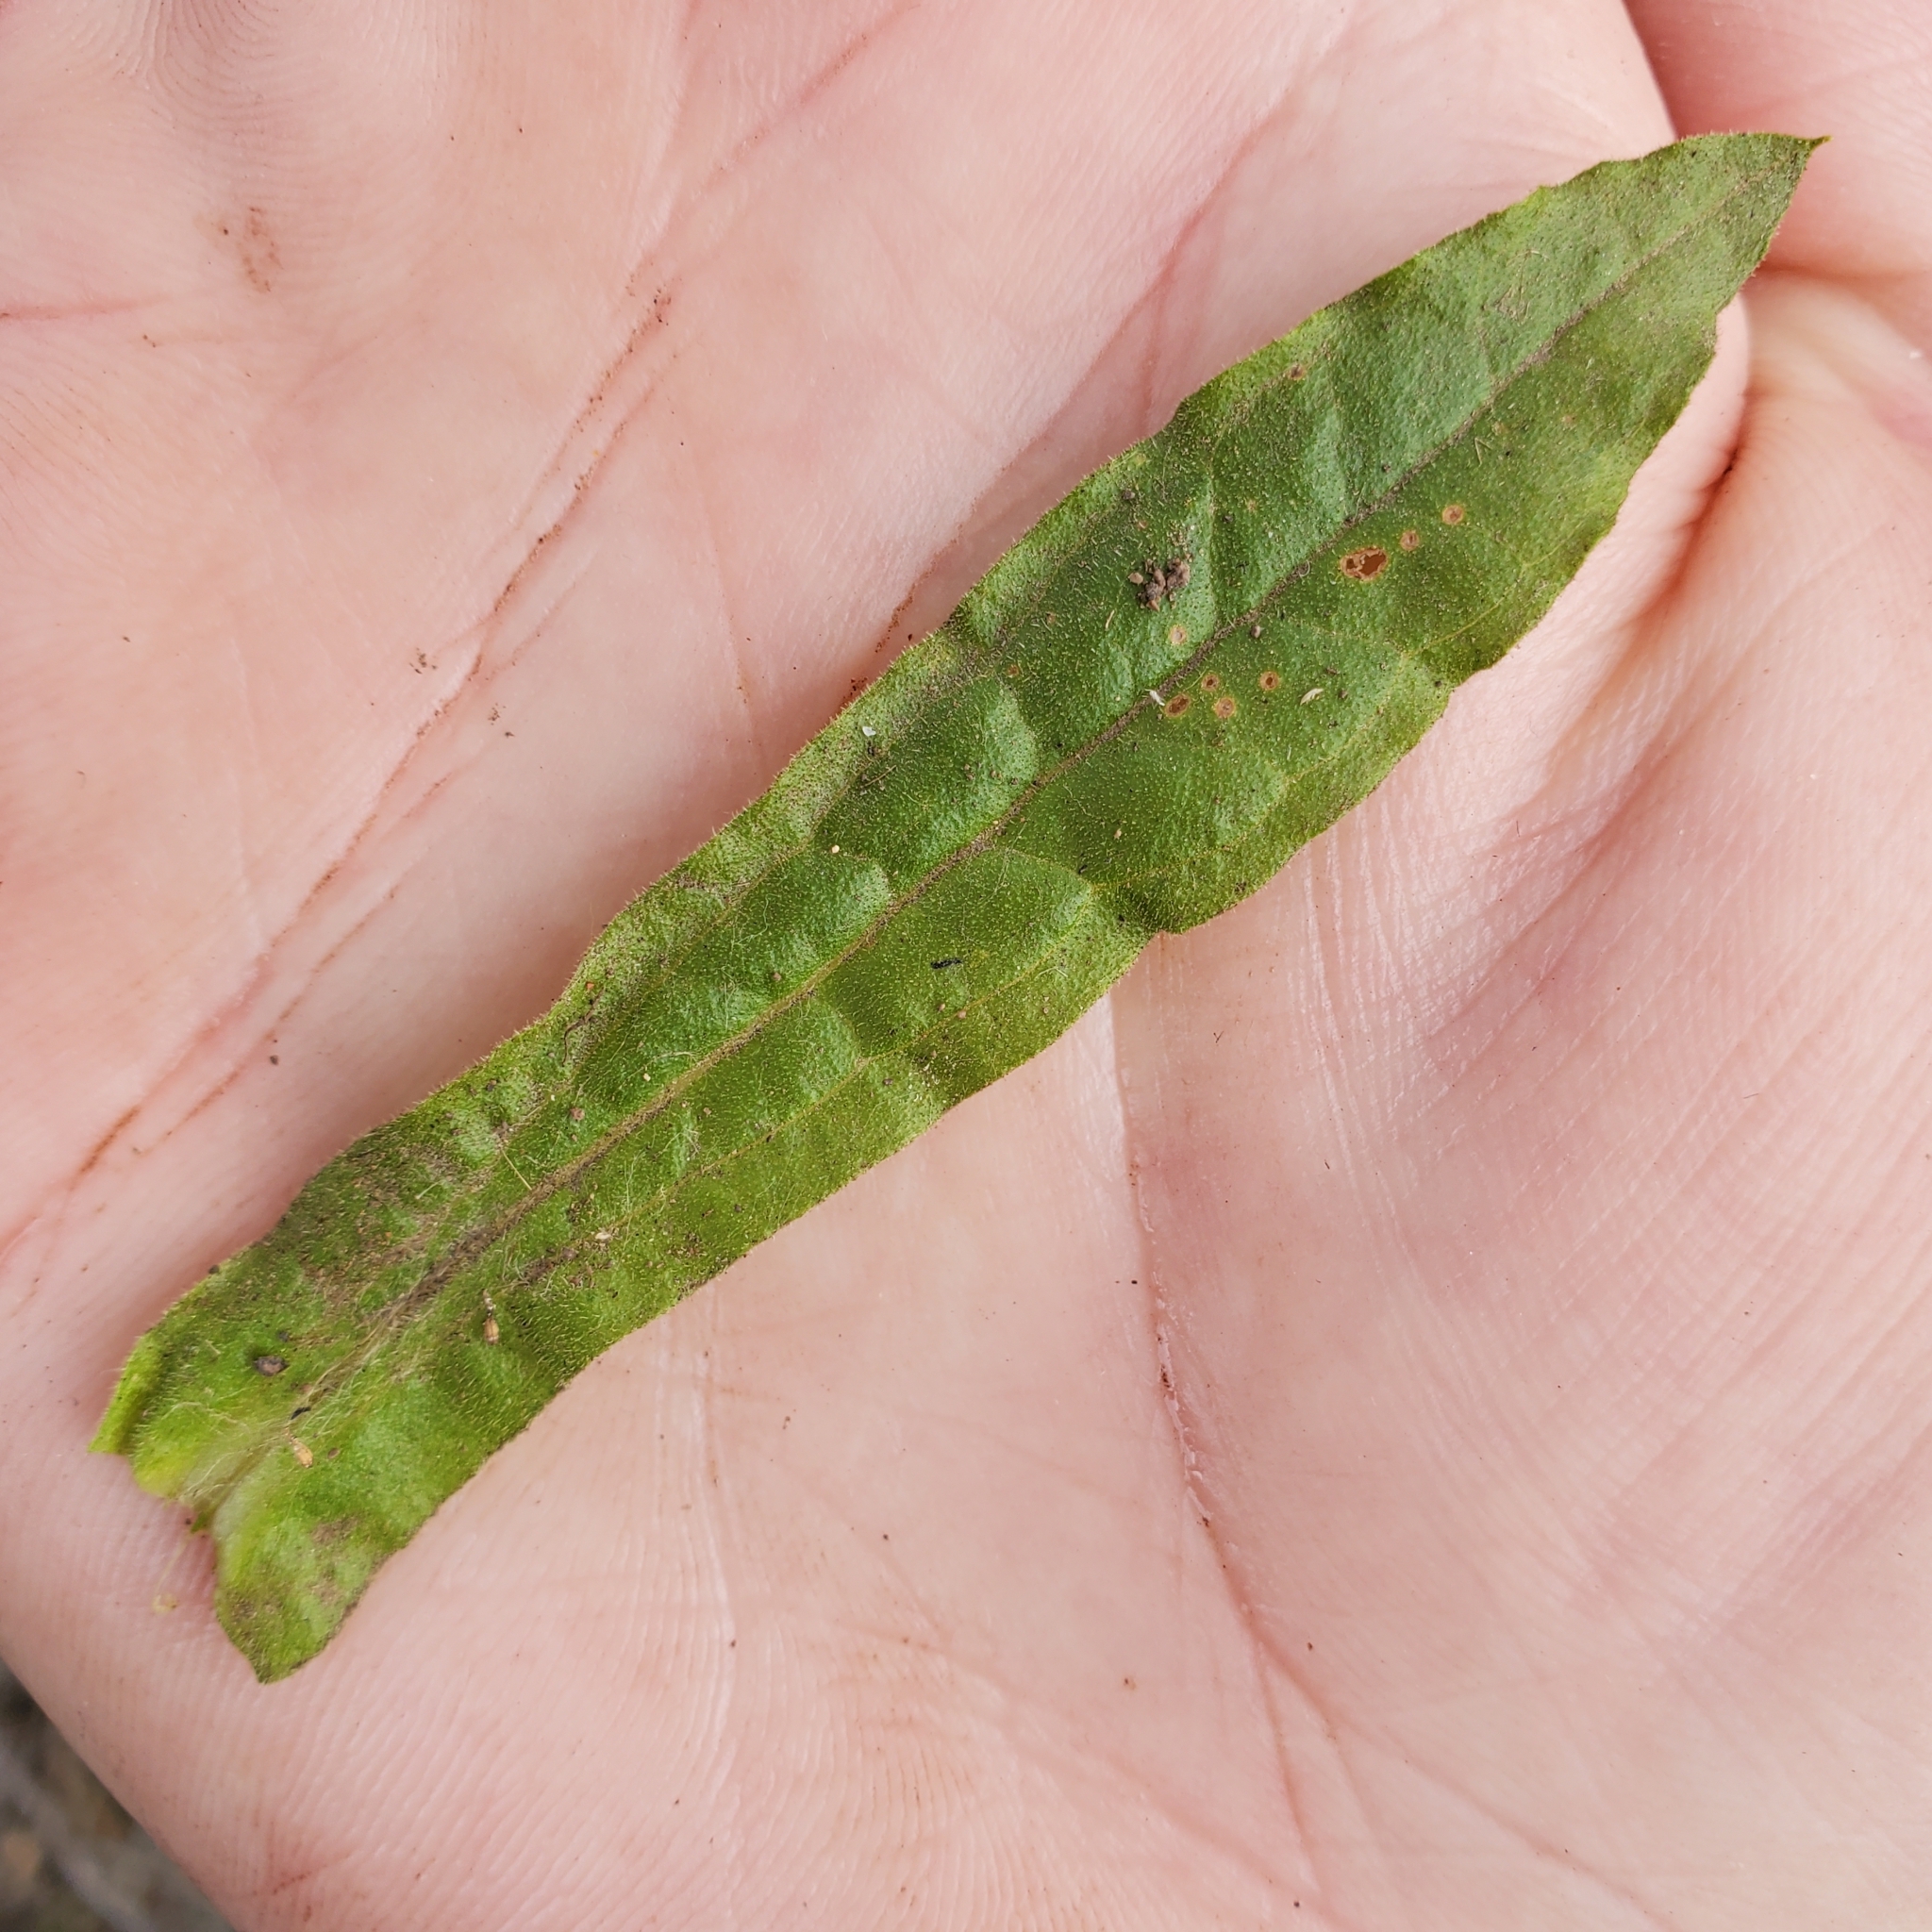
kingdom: Plantae
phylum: Tracheophyta
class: Magnoliopsida
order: Asterales
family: Asteraceae
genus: Pseudognaphalium
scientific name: Pseudognaphalium californicum
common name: California rabbit-tobacco
